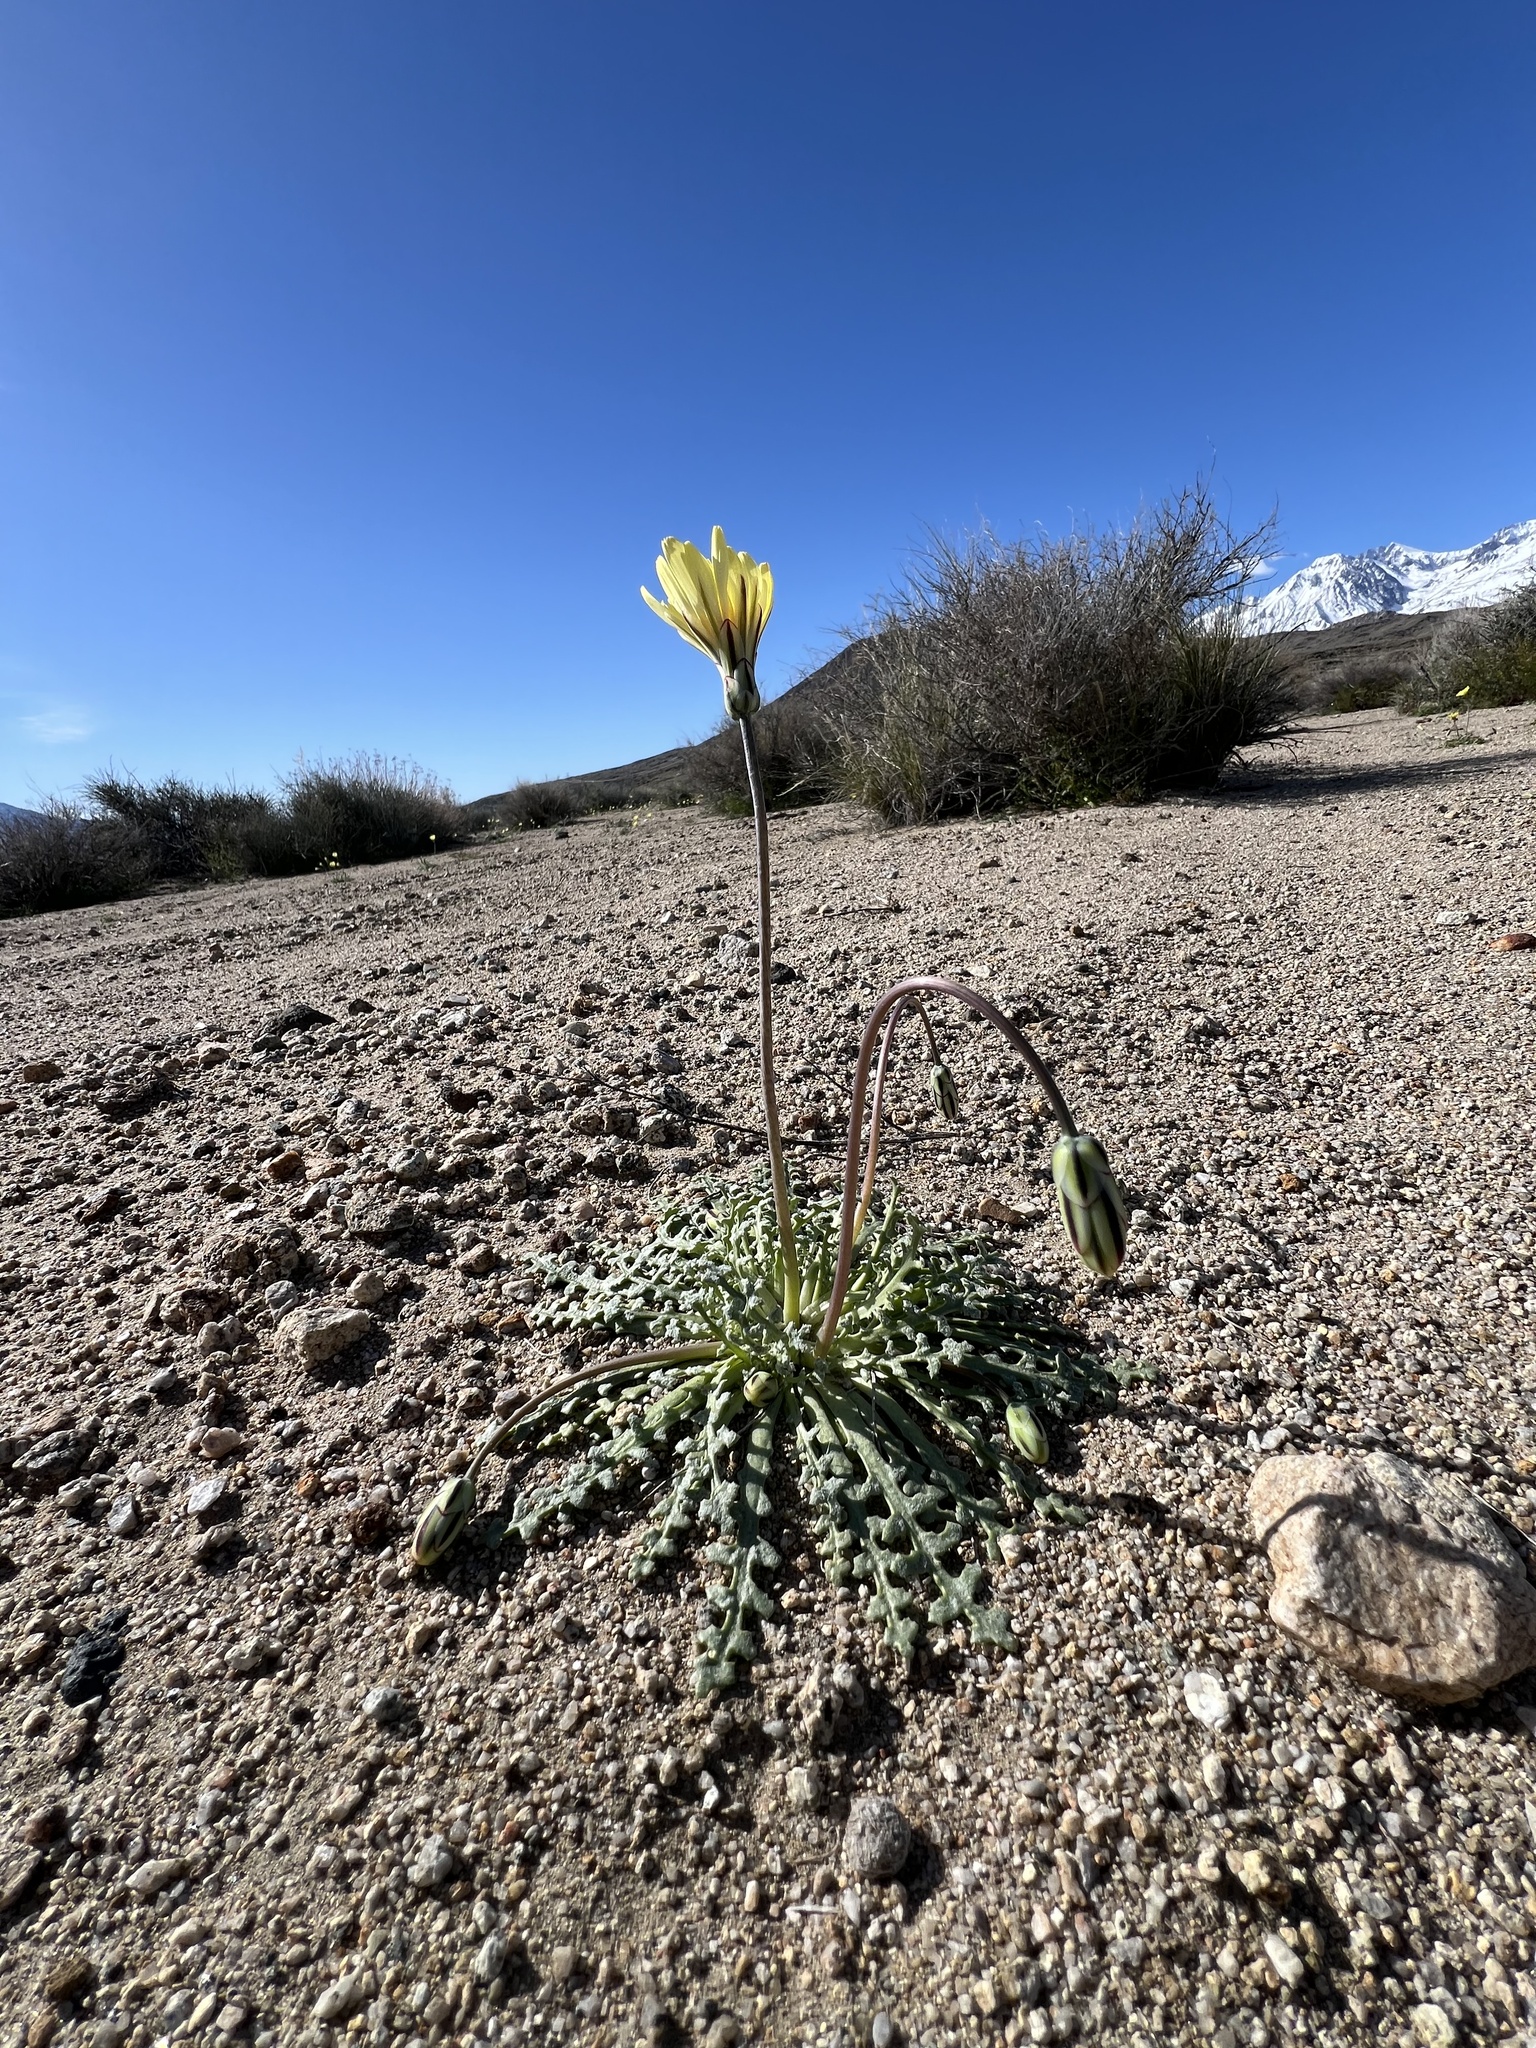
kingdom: Plantae
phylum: Tracheophyta
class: Magnoliopsida
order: Asterales
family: Asteraceae
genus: Anisocoma
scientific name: Anisocoma acaulis
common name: Scalebud
